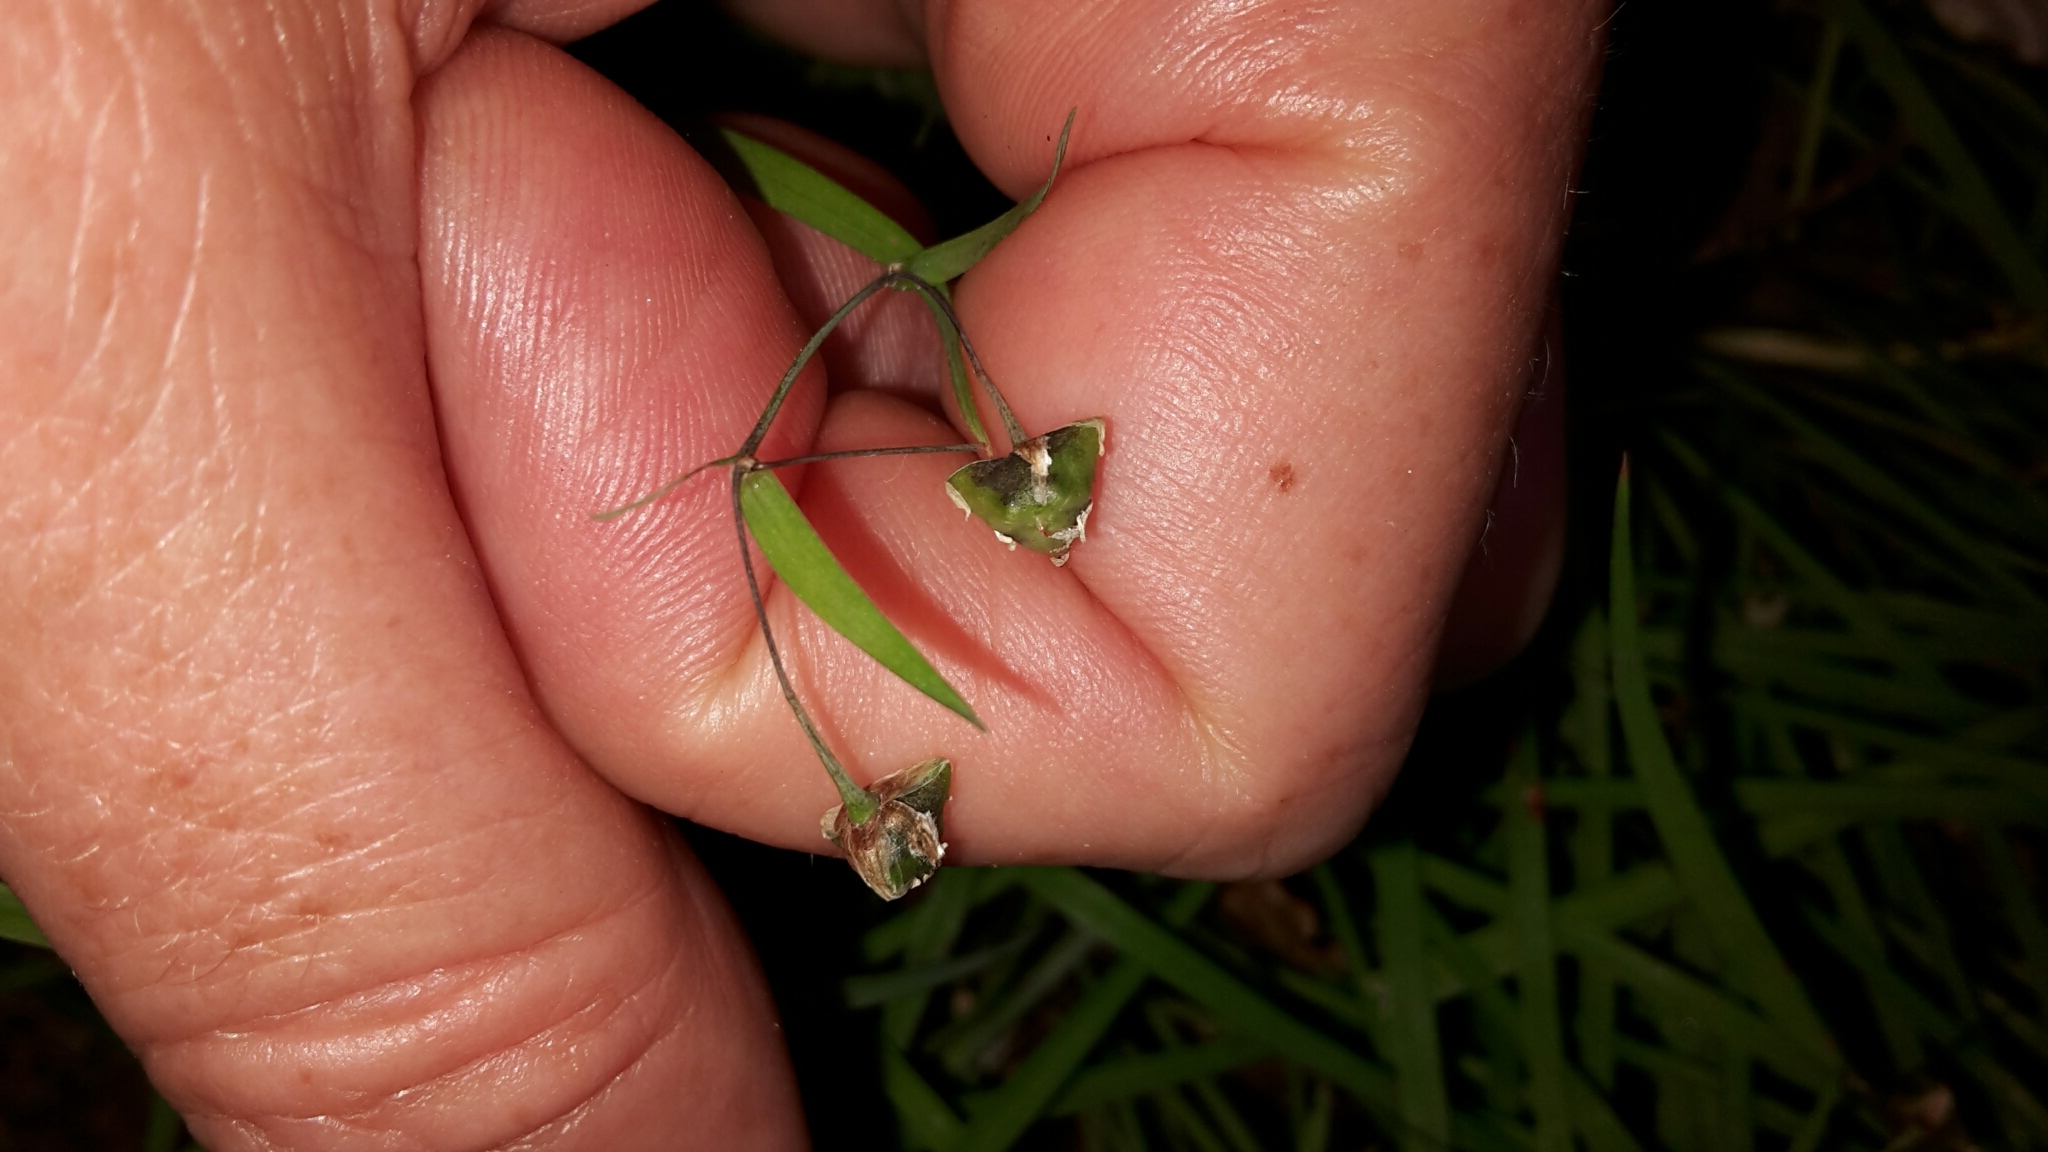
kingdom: Plantae
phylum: Tracheophyta
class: Liliopsida
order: Asparagales
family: Asparagaceae
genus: Arthropodium
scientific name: Arthropodium candidum
